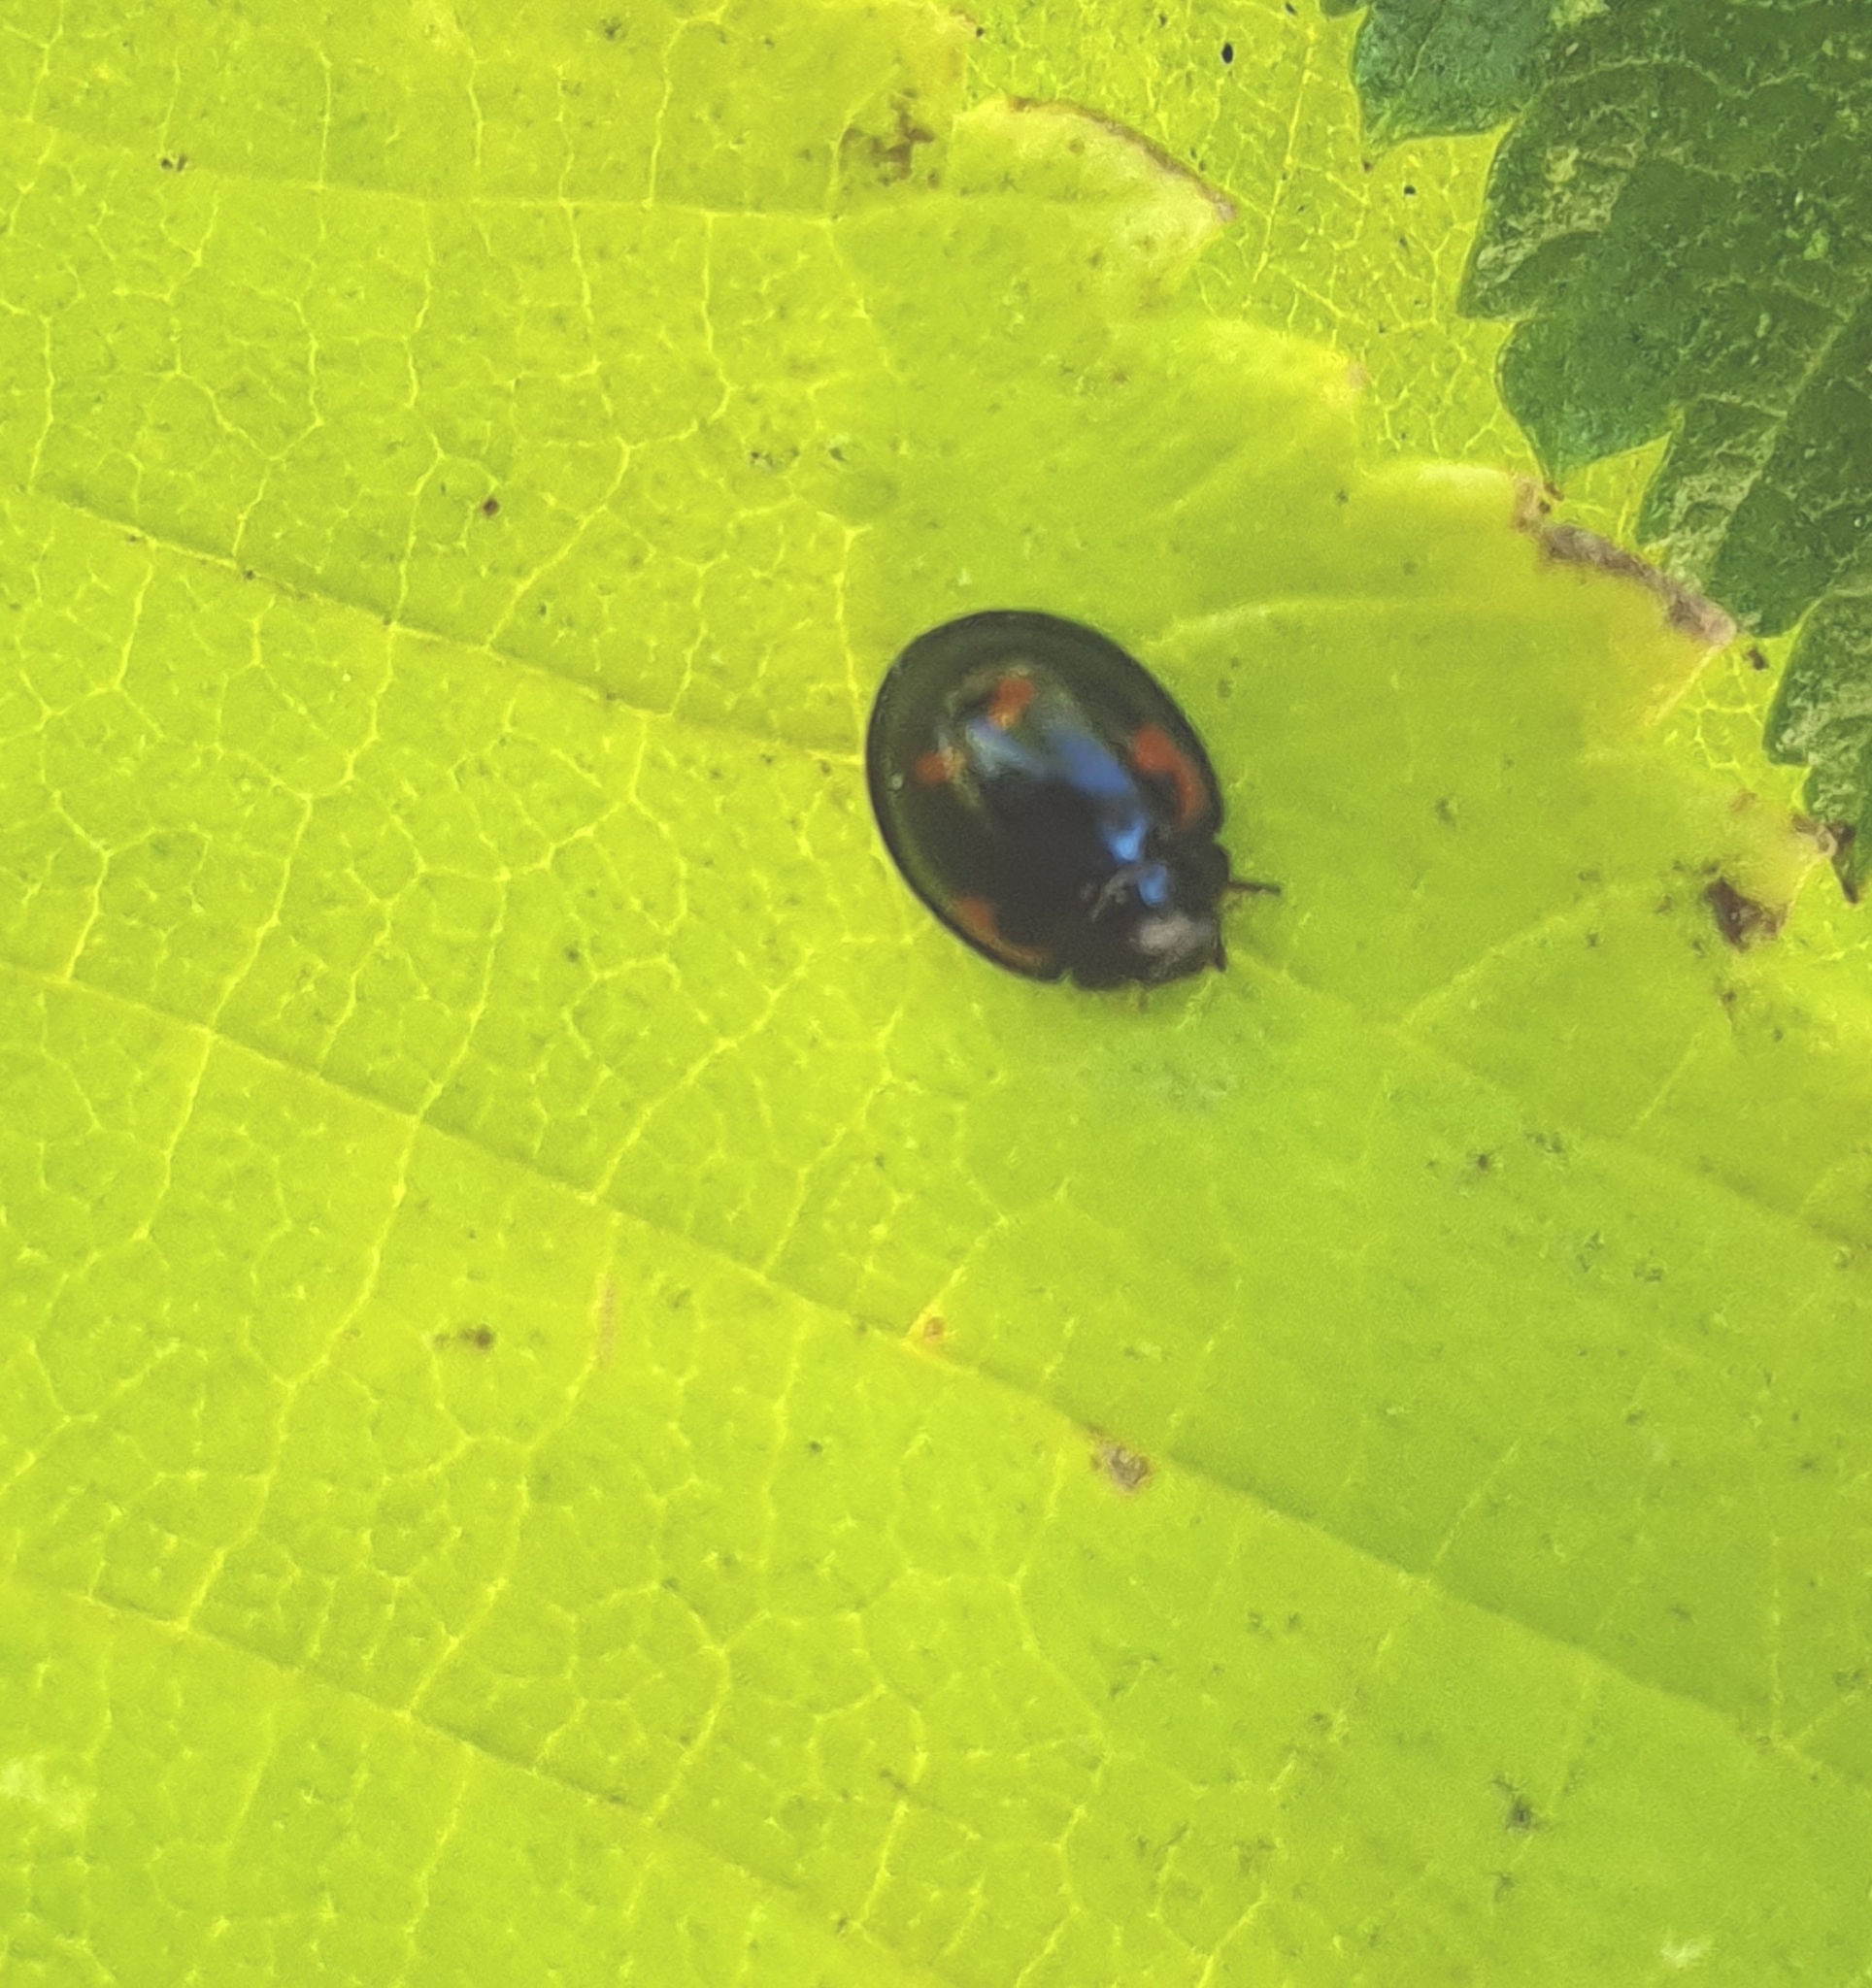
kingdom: Animalia
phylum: Arthropoda
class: Insecta
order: Coleoptera
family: Coccinellidae
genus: Brumus
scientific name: Brumus quadripustulatus
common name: Ladybird beetle
